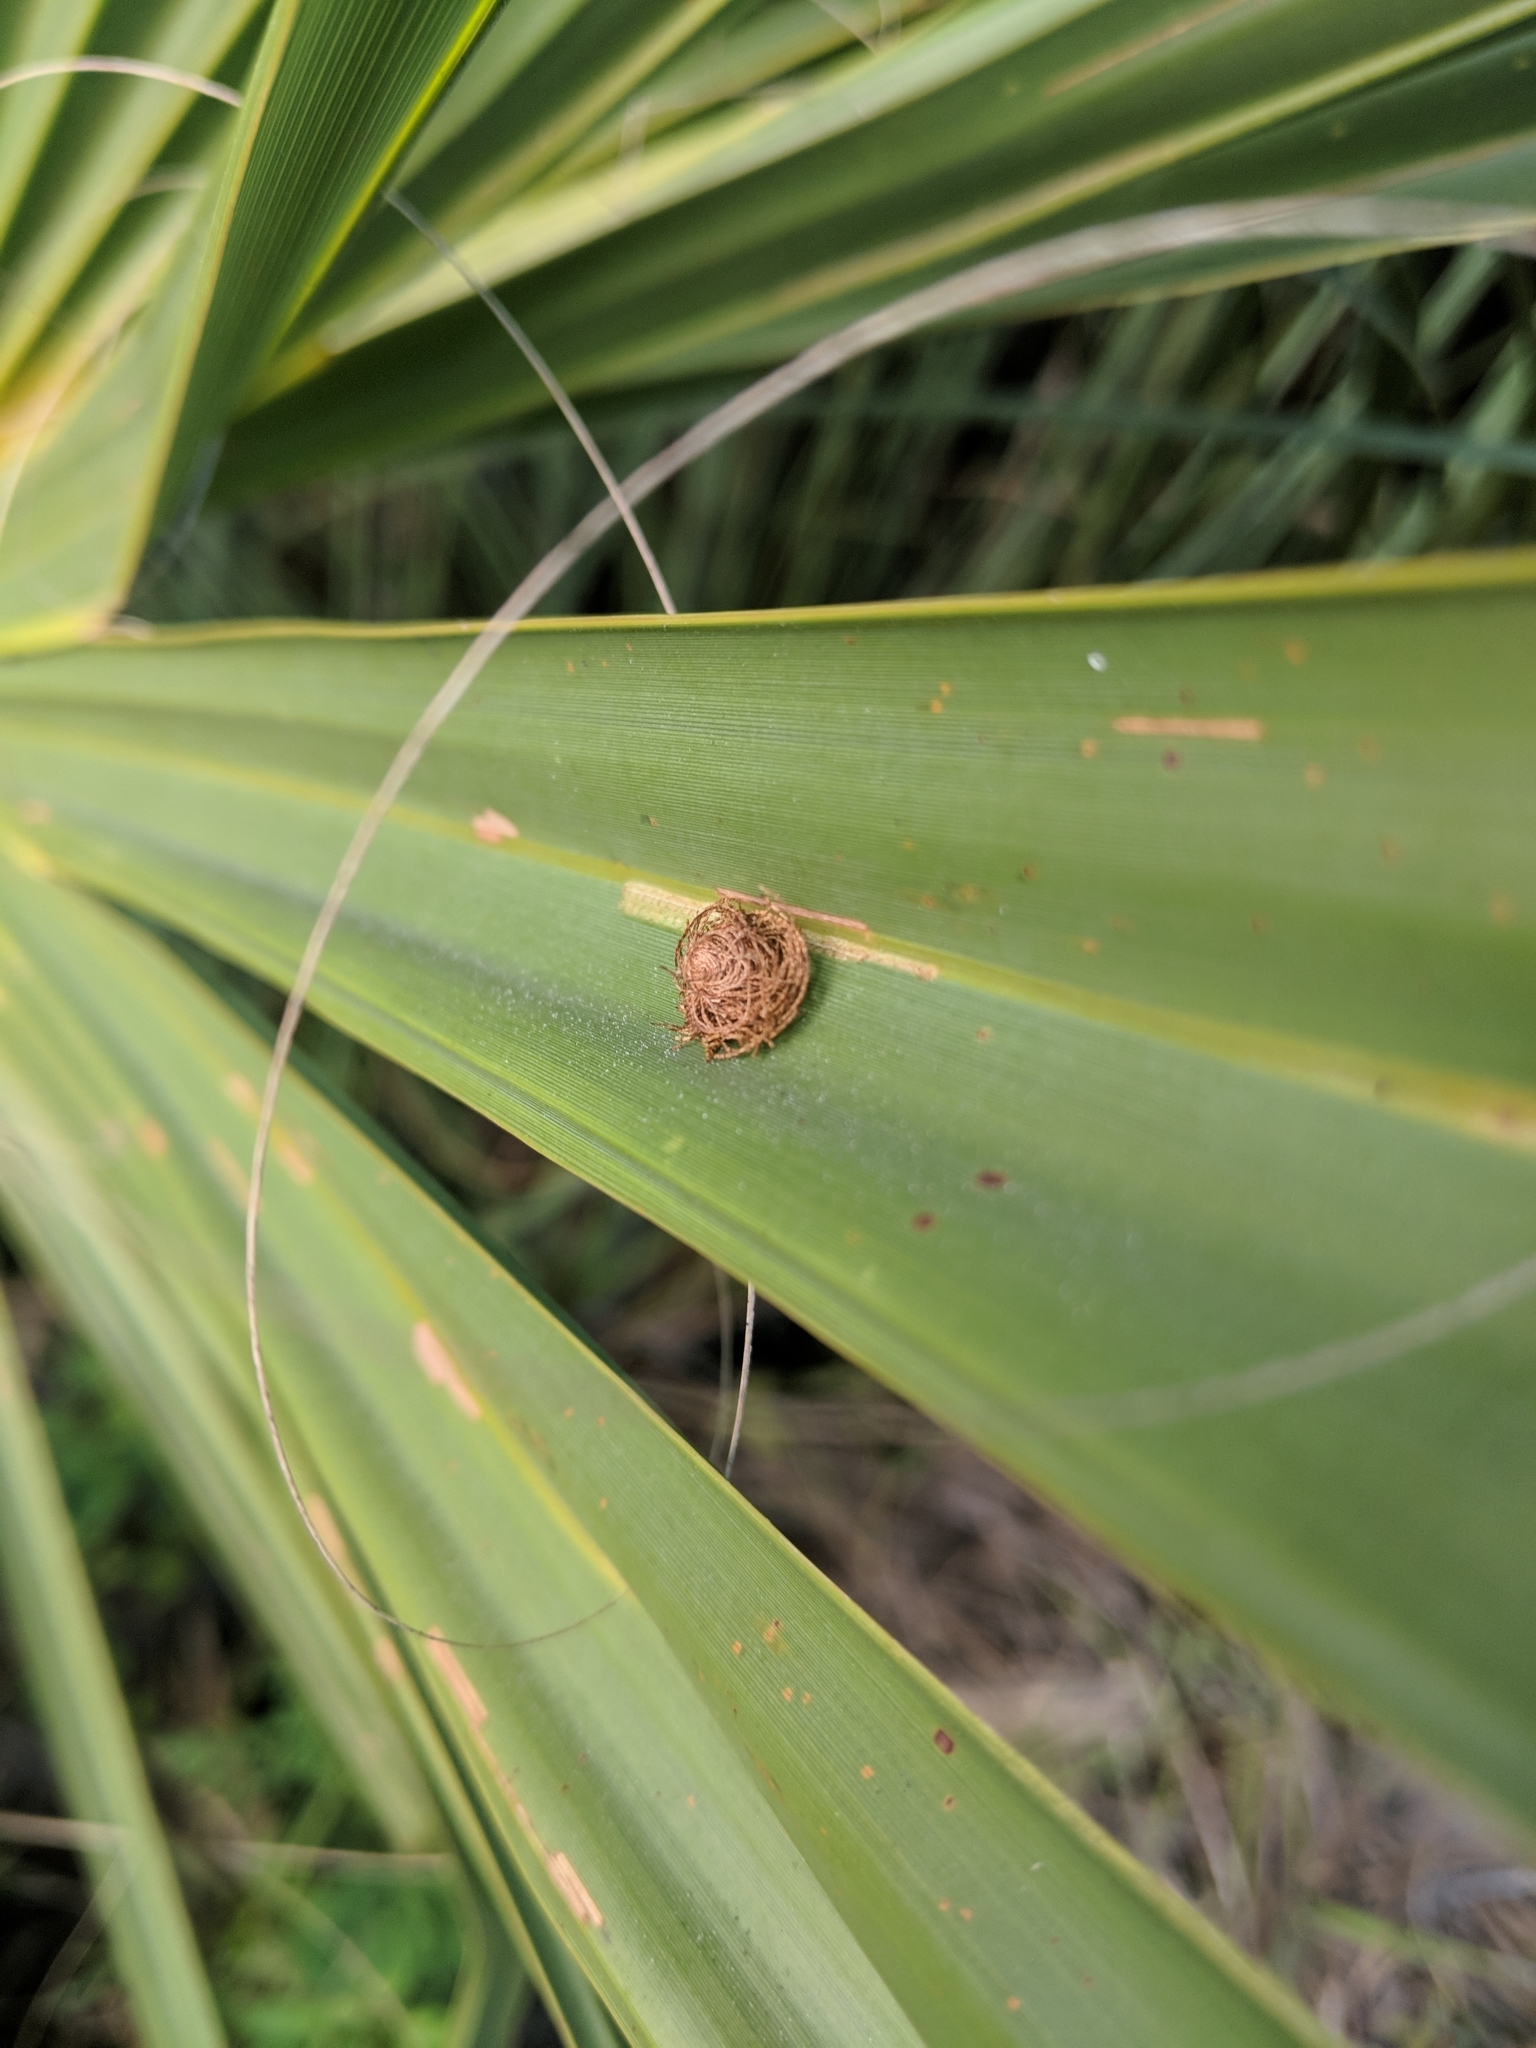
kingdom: Animalia
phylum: Arthropoda
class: Insecta
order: Coleoptera
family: Chrysomelidae
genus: Hemisphaerota
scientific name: Hemisphaerota cyanea
